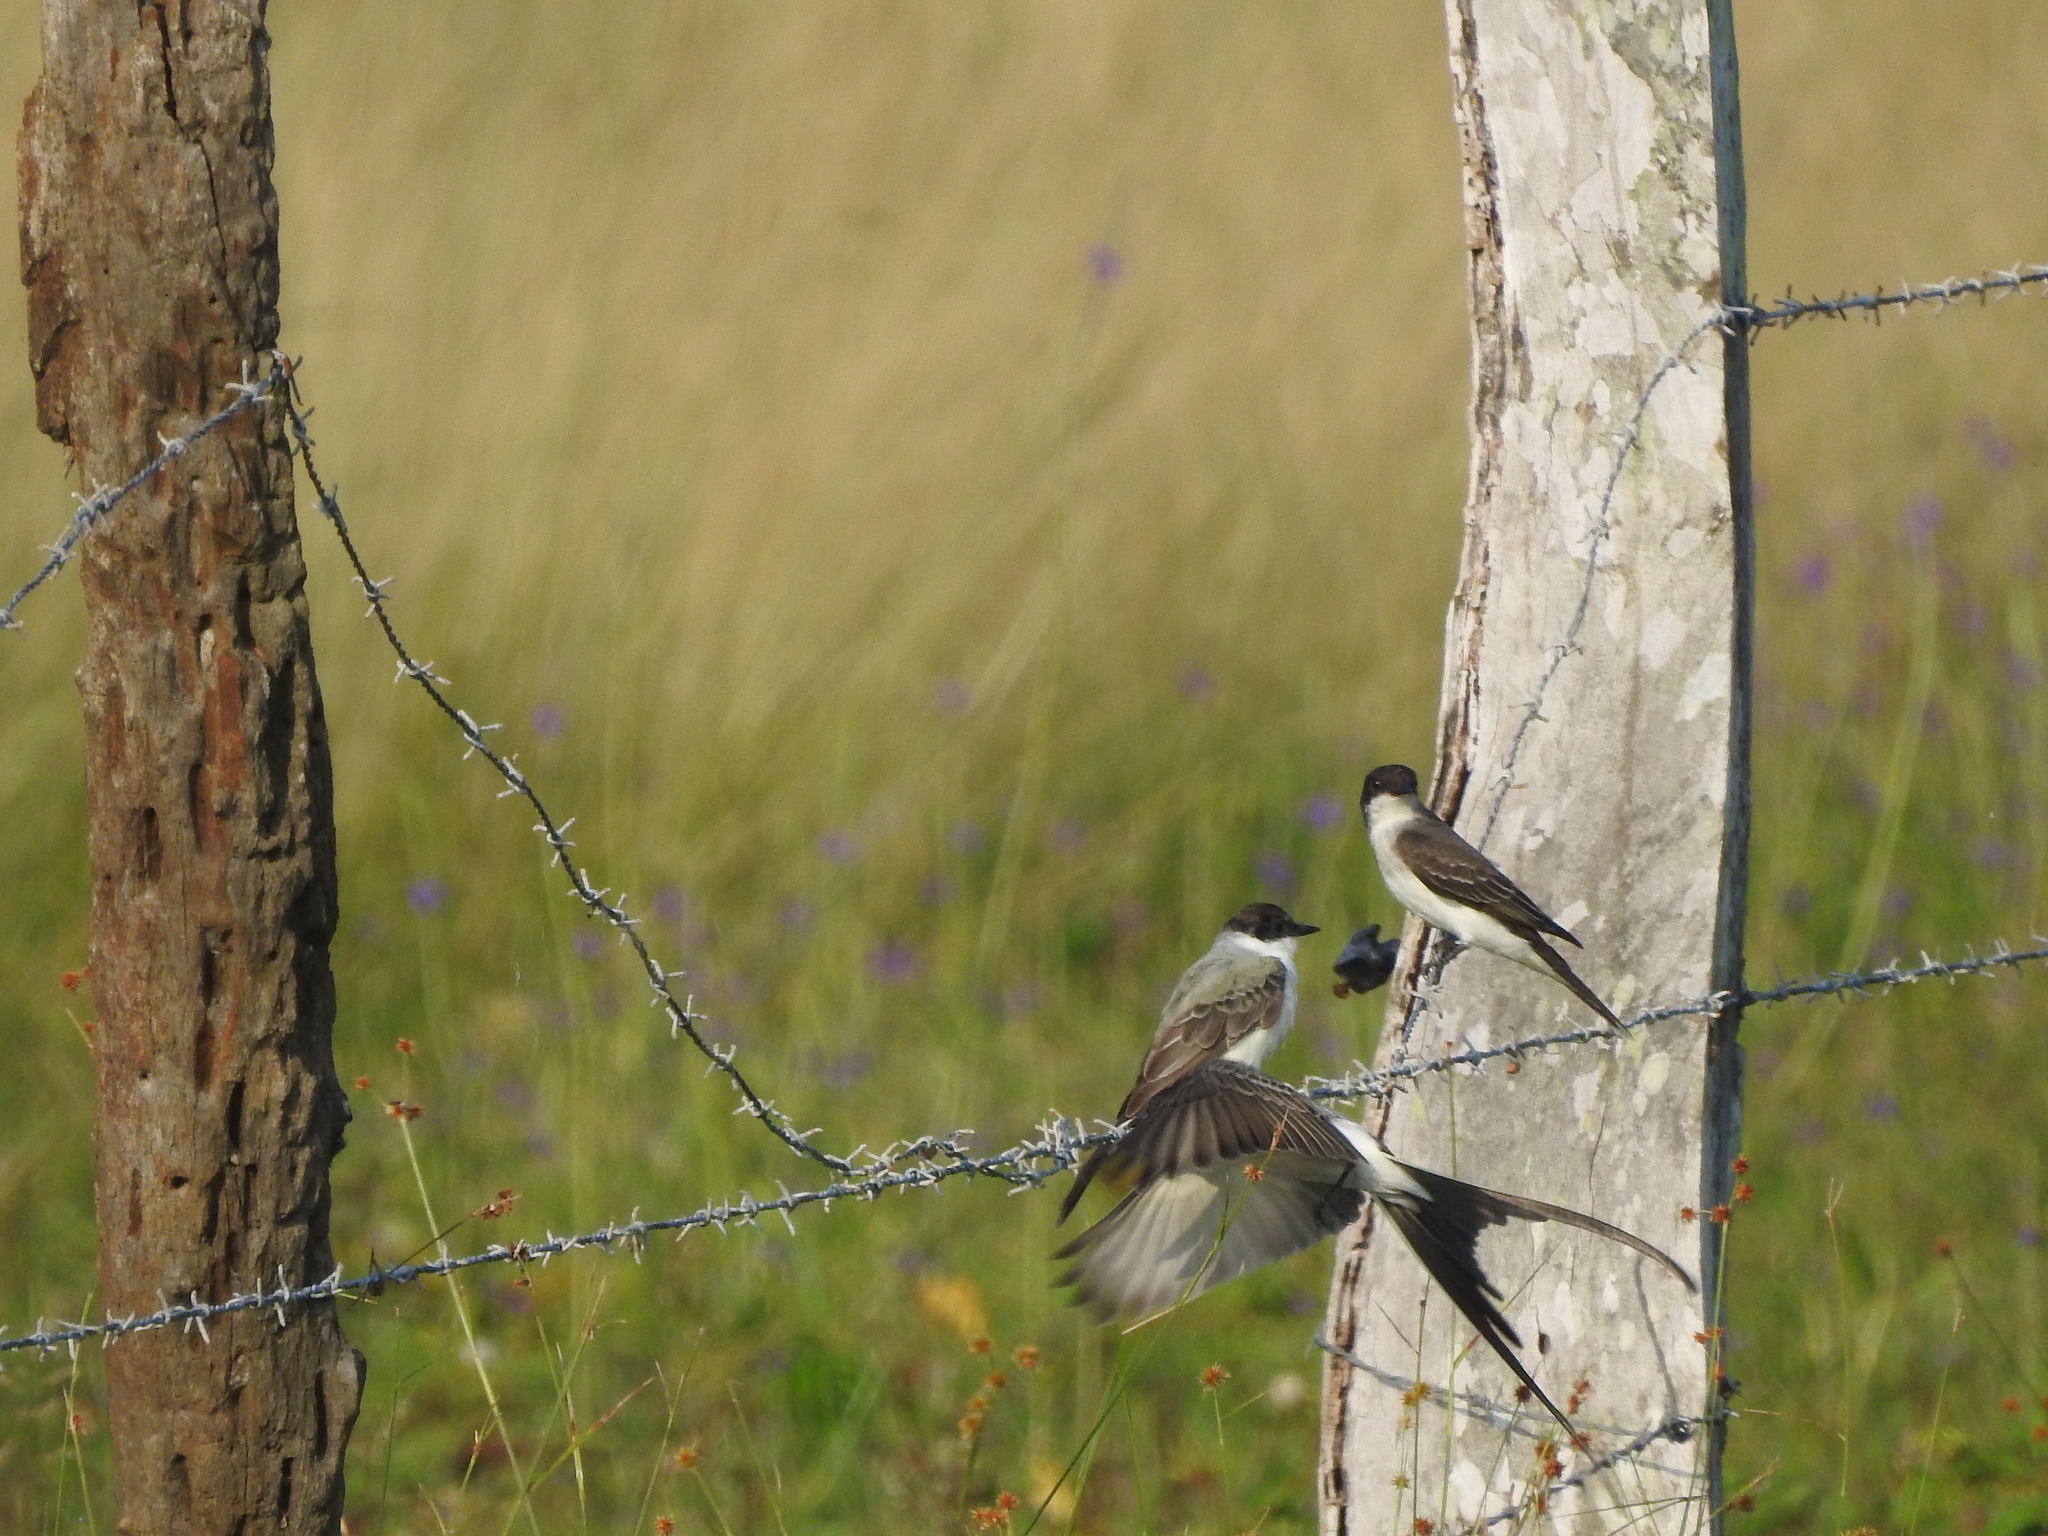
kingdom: Animalia
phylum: Chordata
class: Aves
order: Passeriformes
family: Tyrannidae
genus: Tyrannus
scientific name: Tyrannus tyrannus
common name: Eastern kingbird
